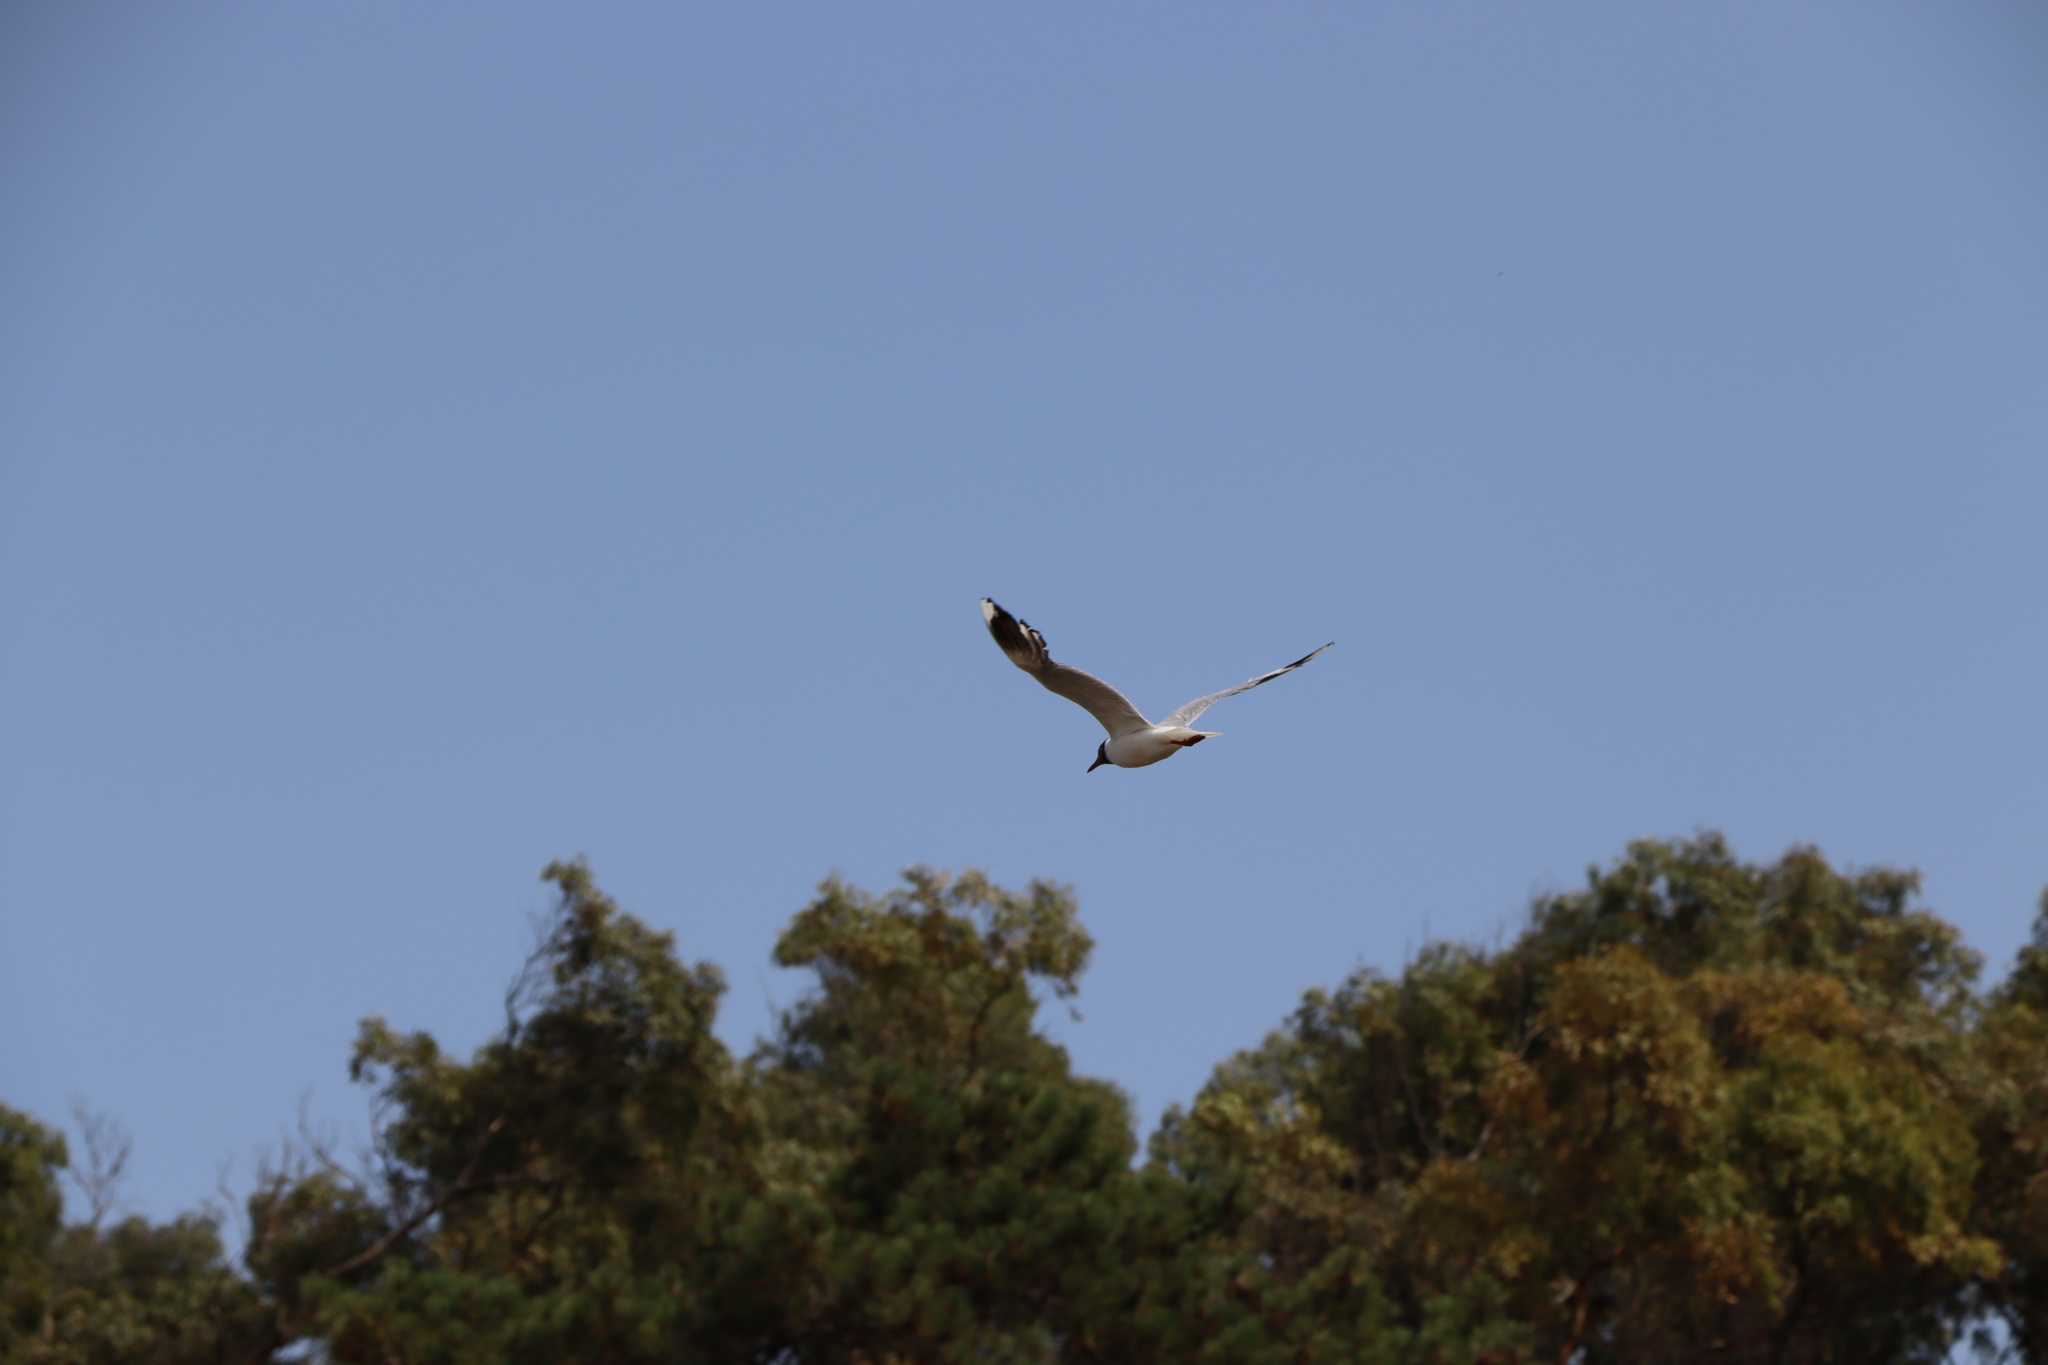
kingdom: Animalia
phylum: Chordata
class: Aves
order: Charadriiformes
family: Laridae
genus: Chroicocephalus
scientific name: Chroicocephalus maculipennis
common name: Brown-hooded gull
